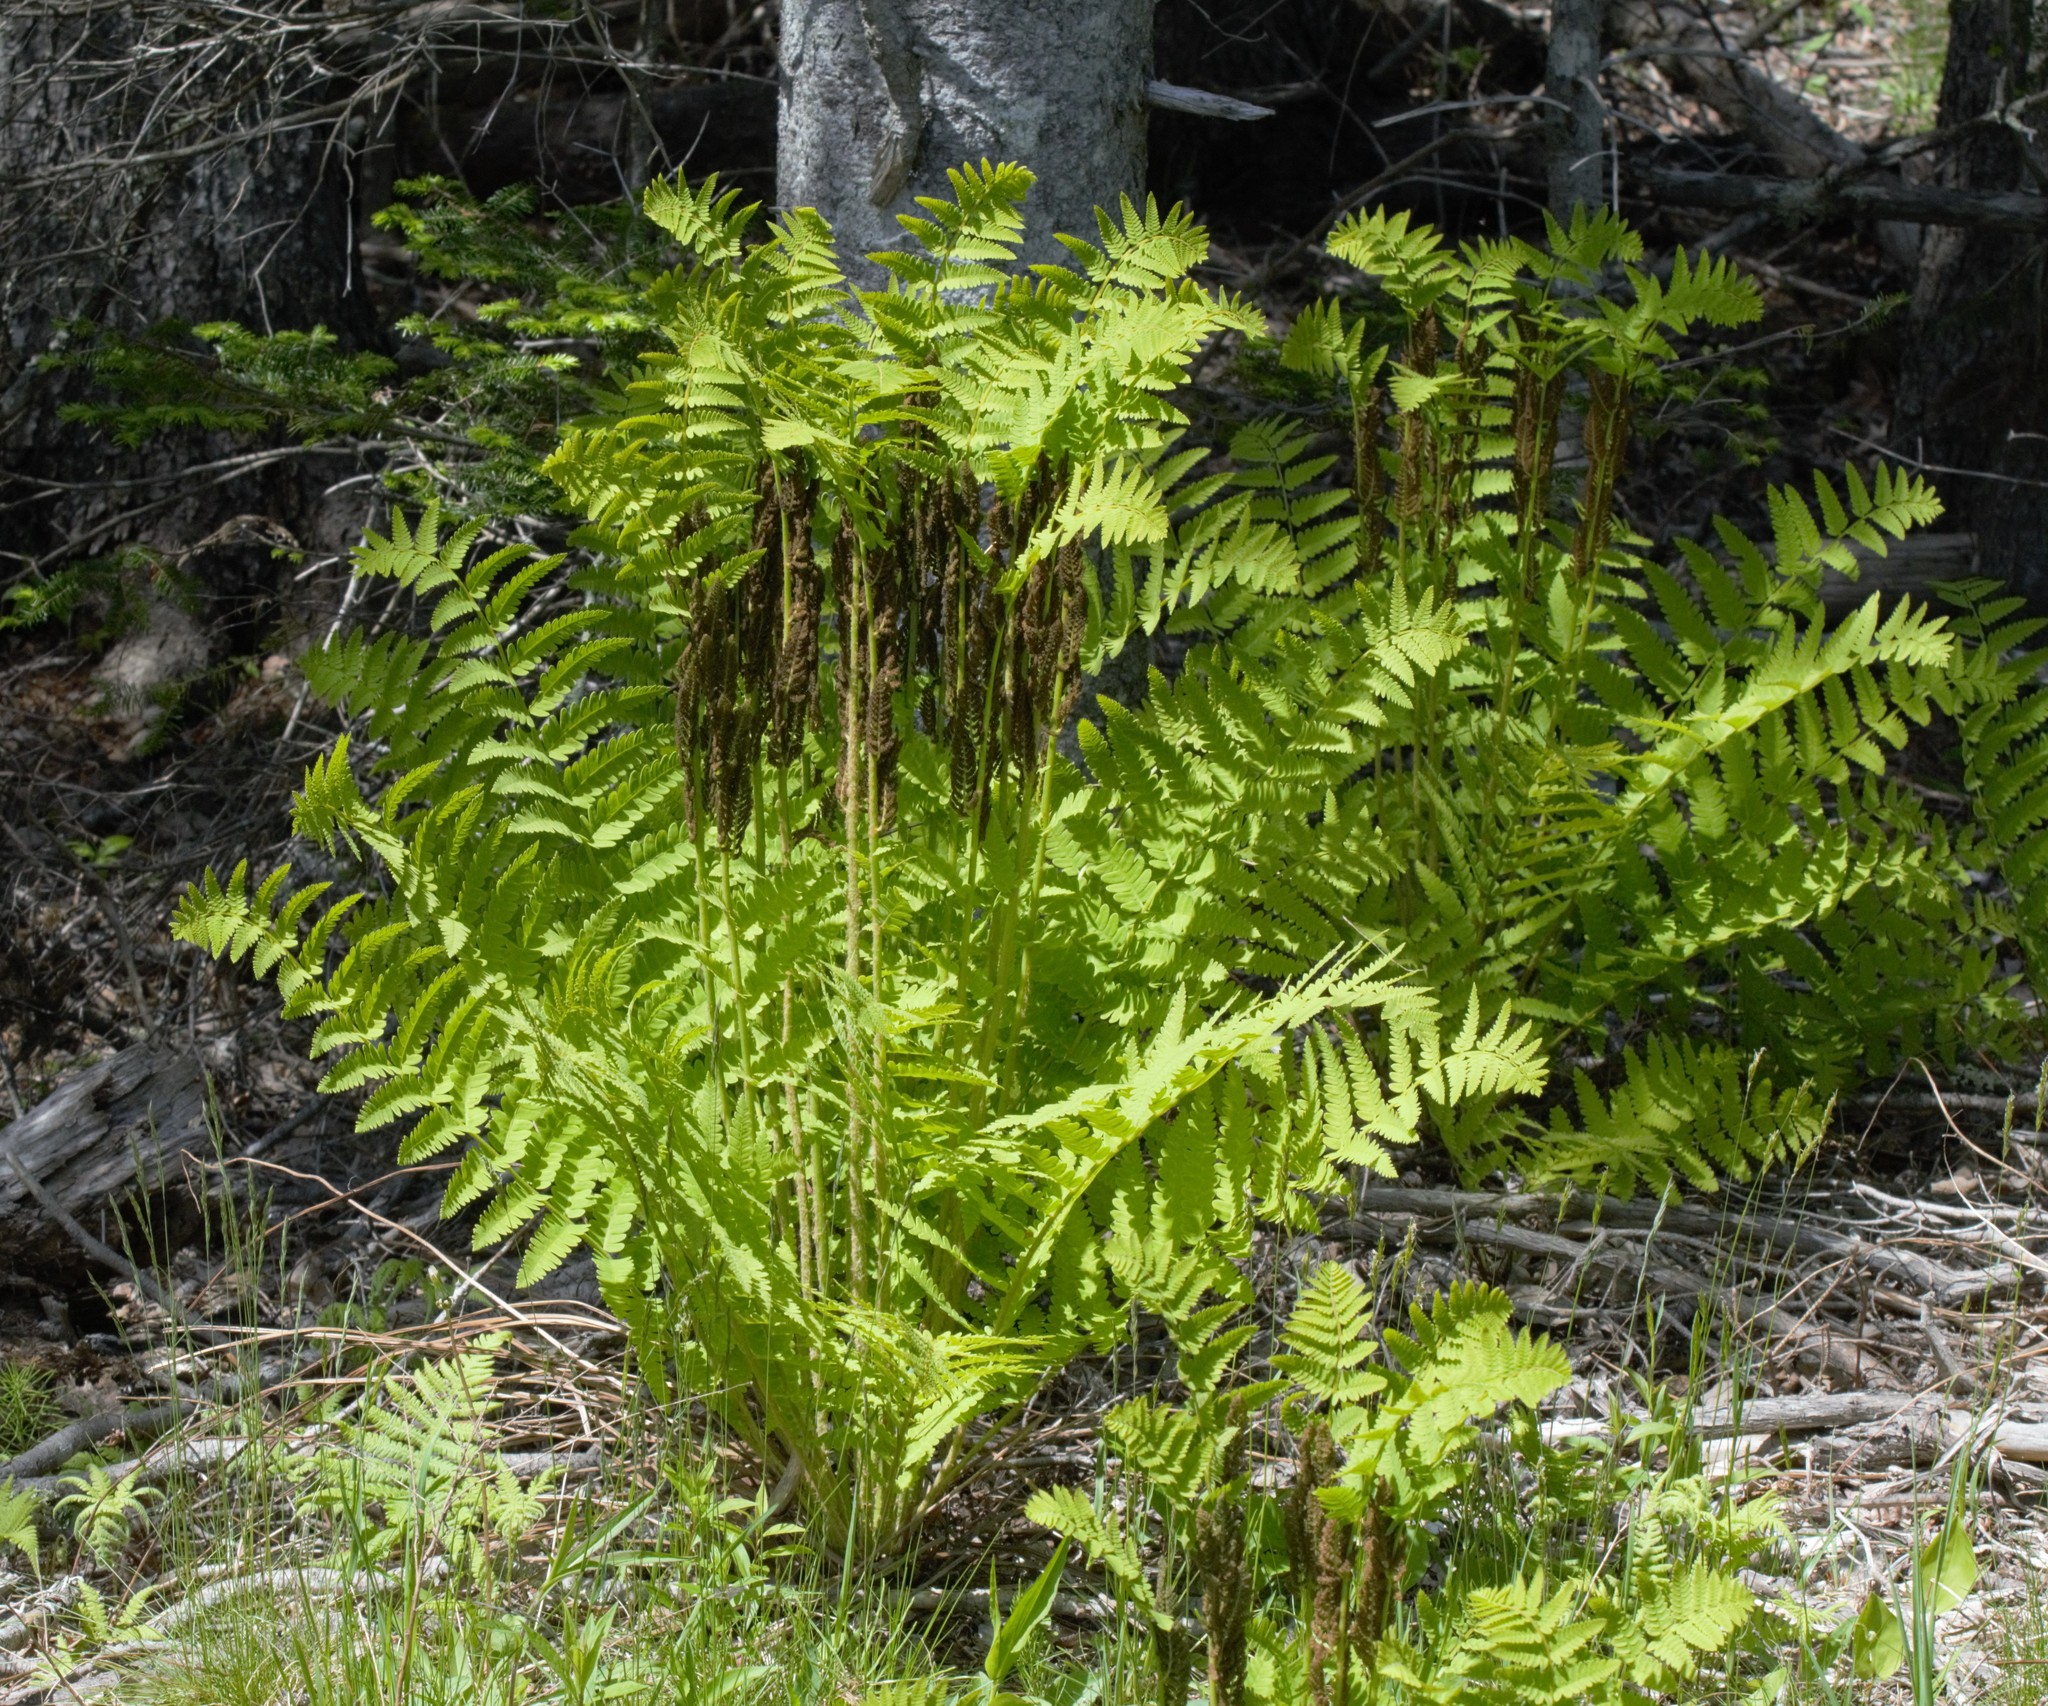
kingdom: Plantae
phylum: Tracheophyta
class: Polypodiopsida
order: Osmundales
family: Osmundaceae
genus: Claytosmunda
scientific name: Claytosmunda claytoniana
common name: Clayton's fern
